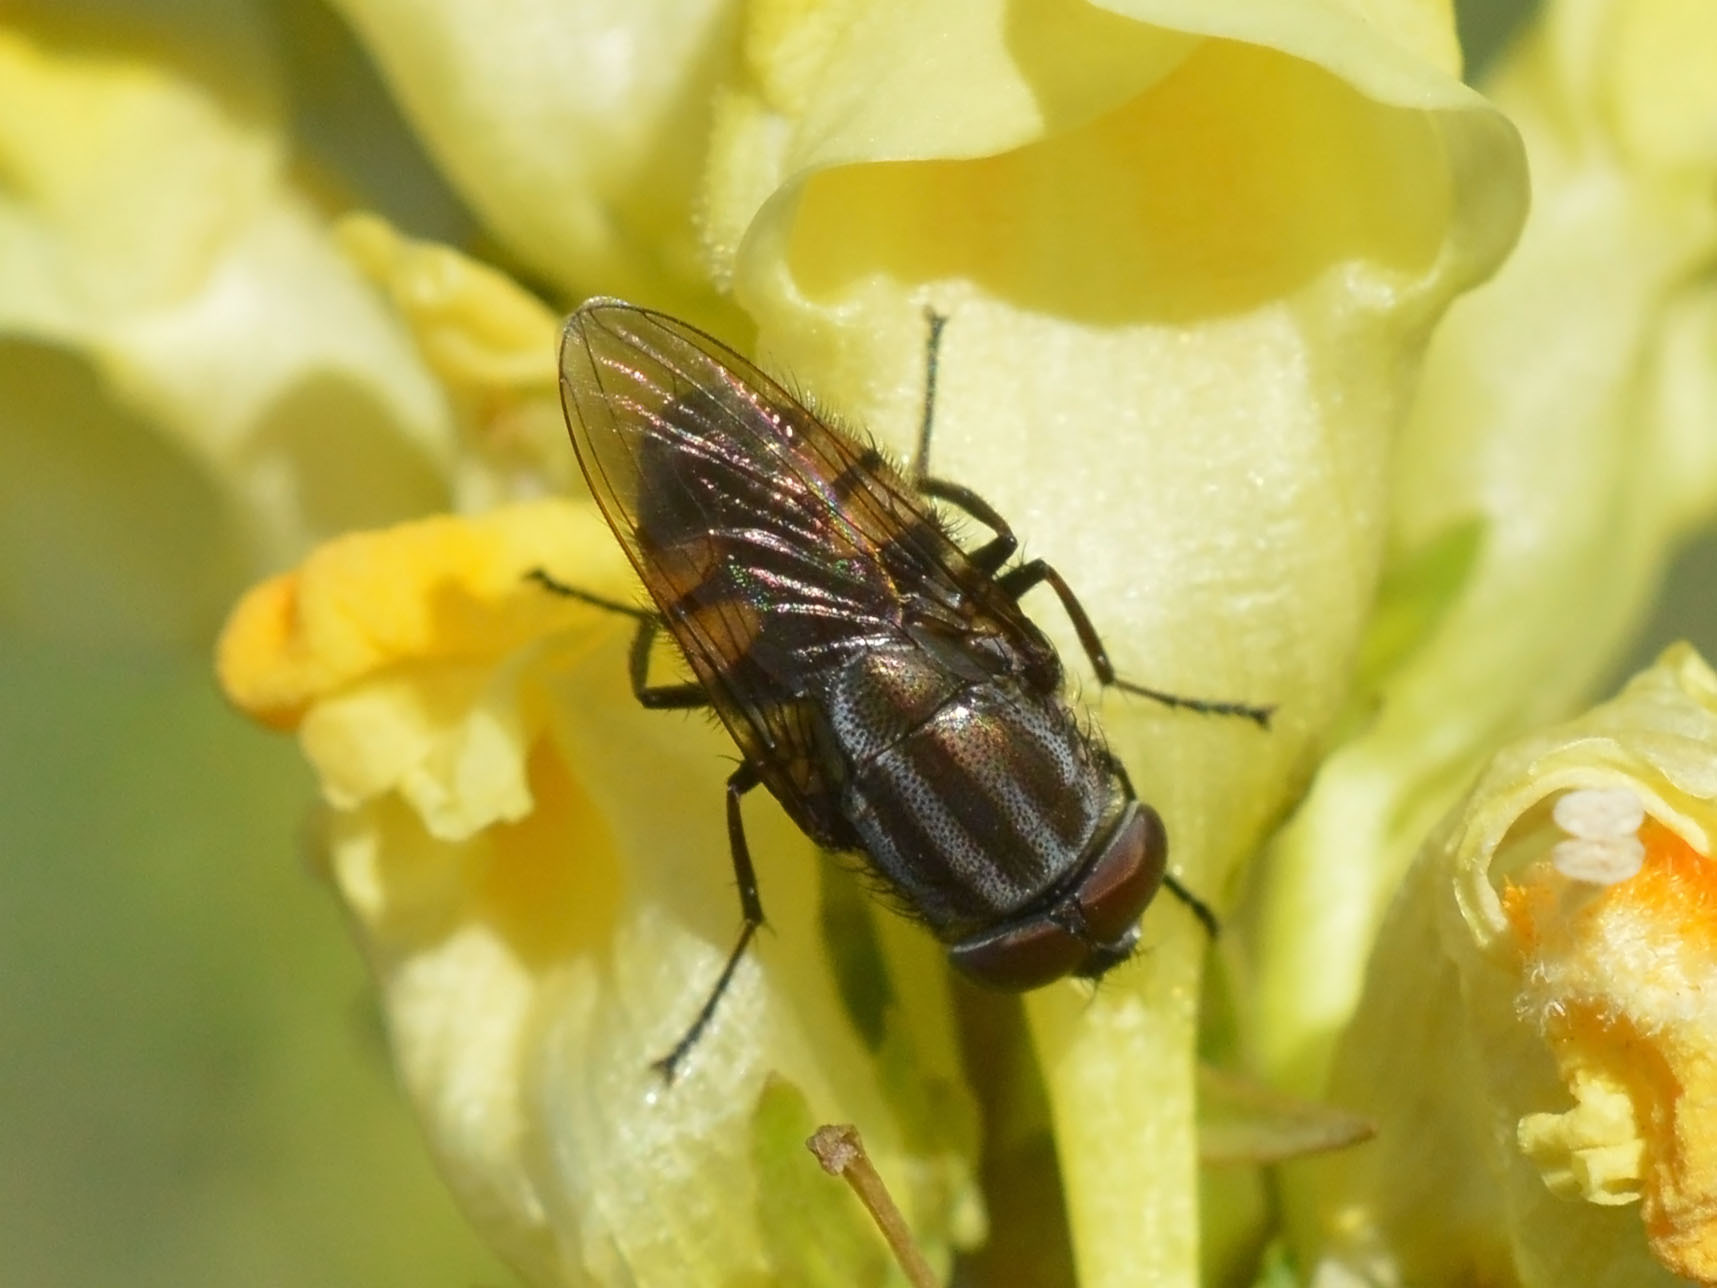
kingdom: Animalia
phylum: Arthropoda
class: Insecta
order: Diptera
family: Calliphoridae
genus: Stomorhina
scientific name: Stomorhina lunata
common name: Locust blowfly
